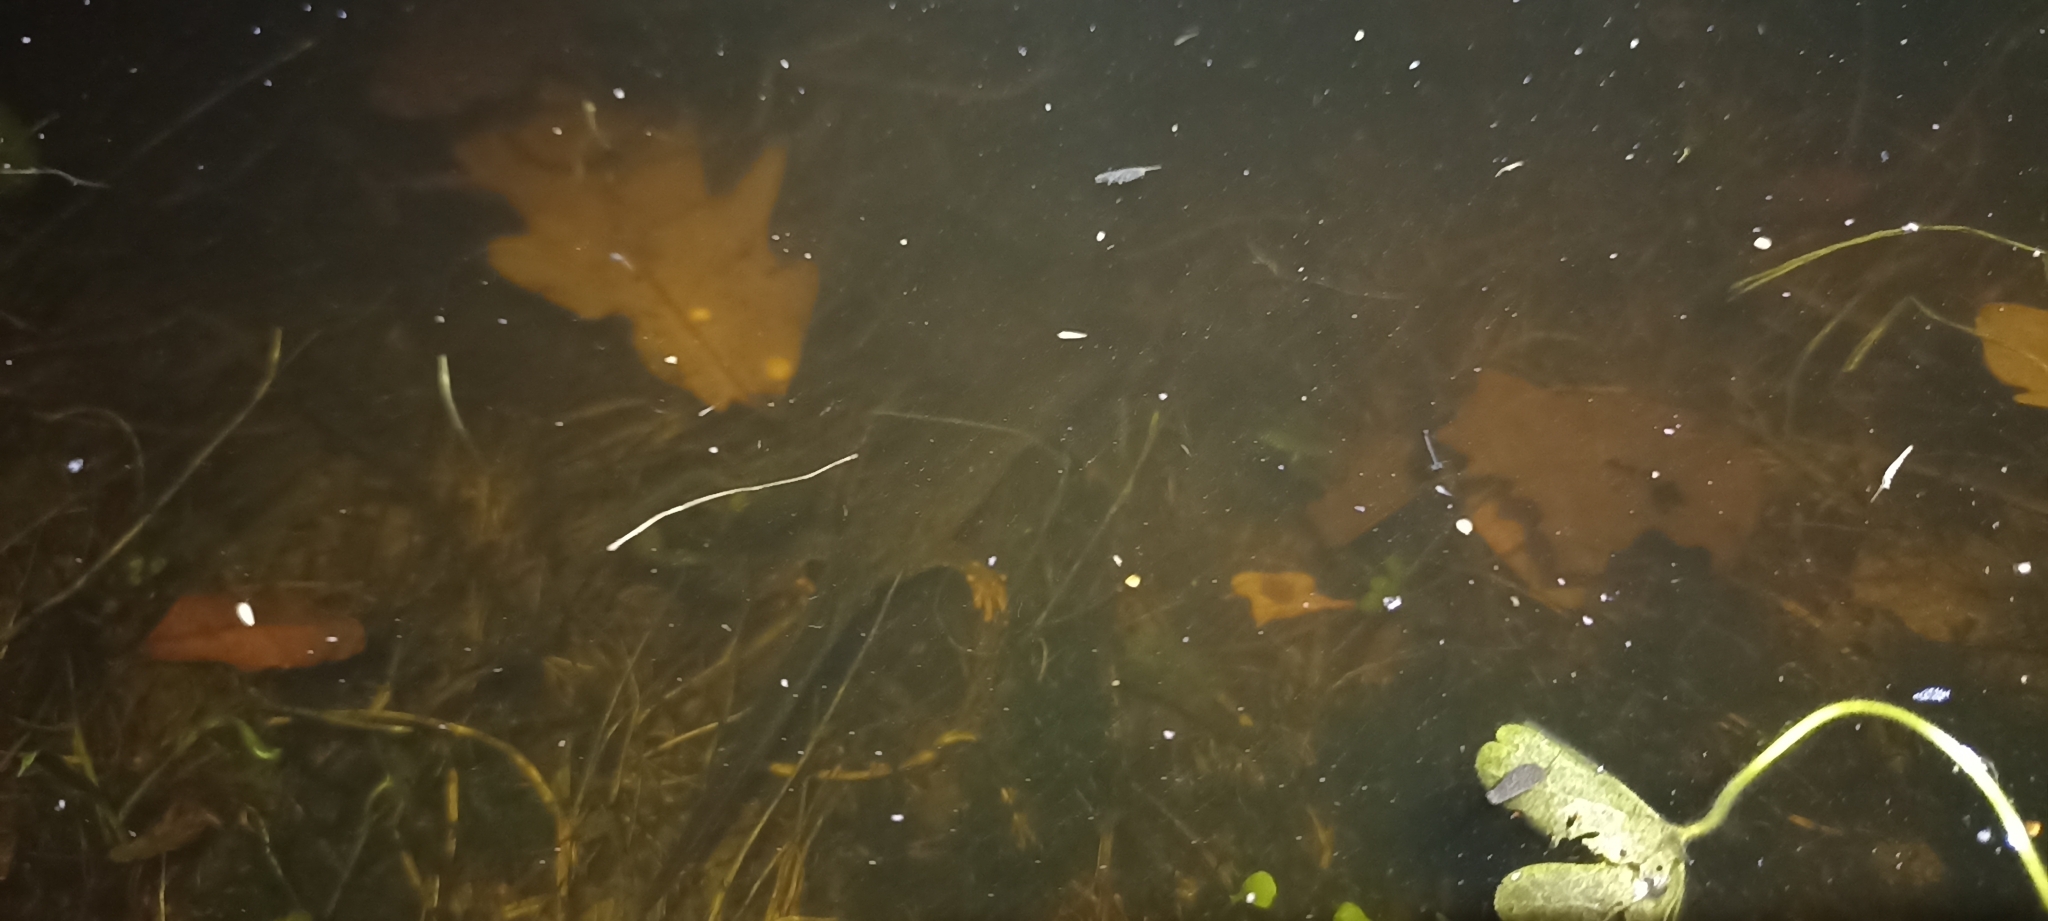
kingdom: Animalia
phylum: Chordata
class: Amphibia
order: Caudata
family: Salamandridae
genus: Triturus
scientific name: Triturus cristatus
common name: Crested newt
